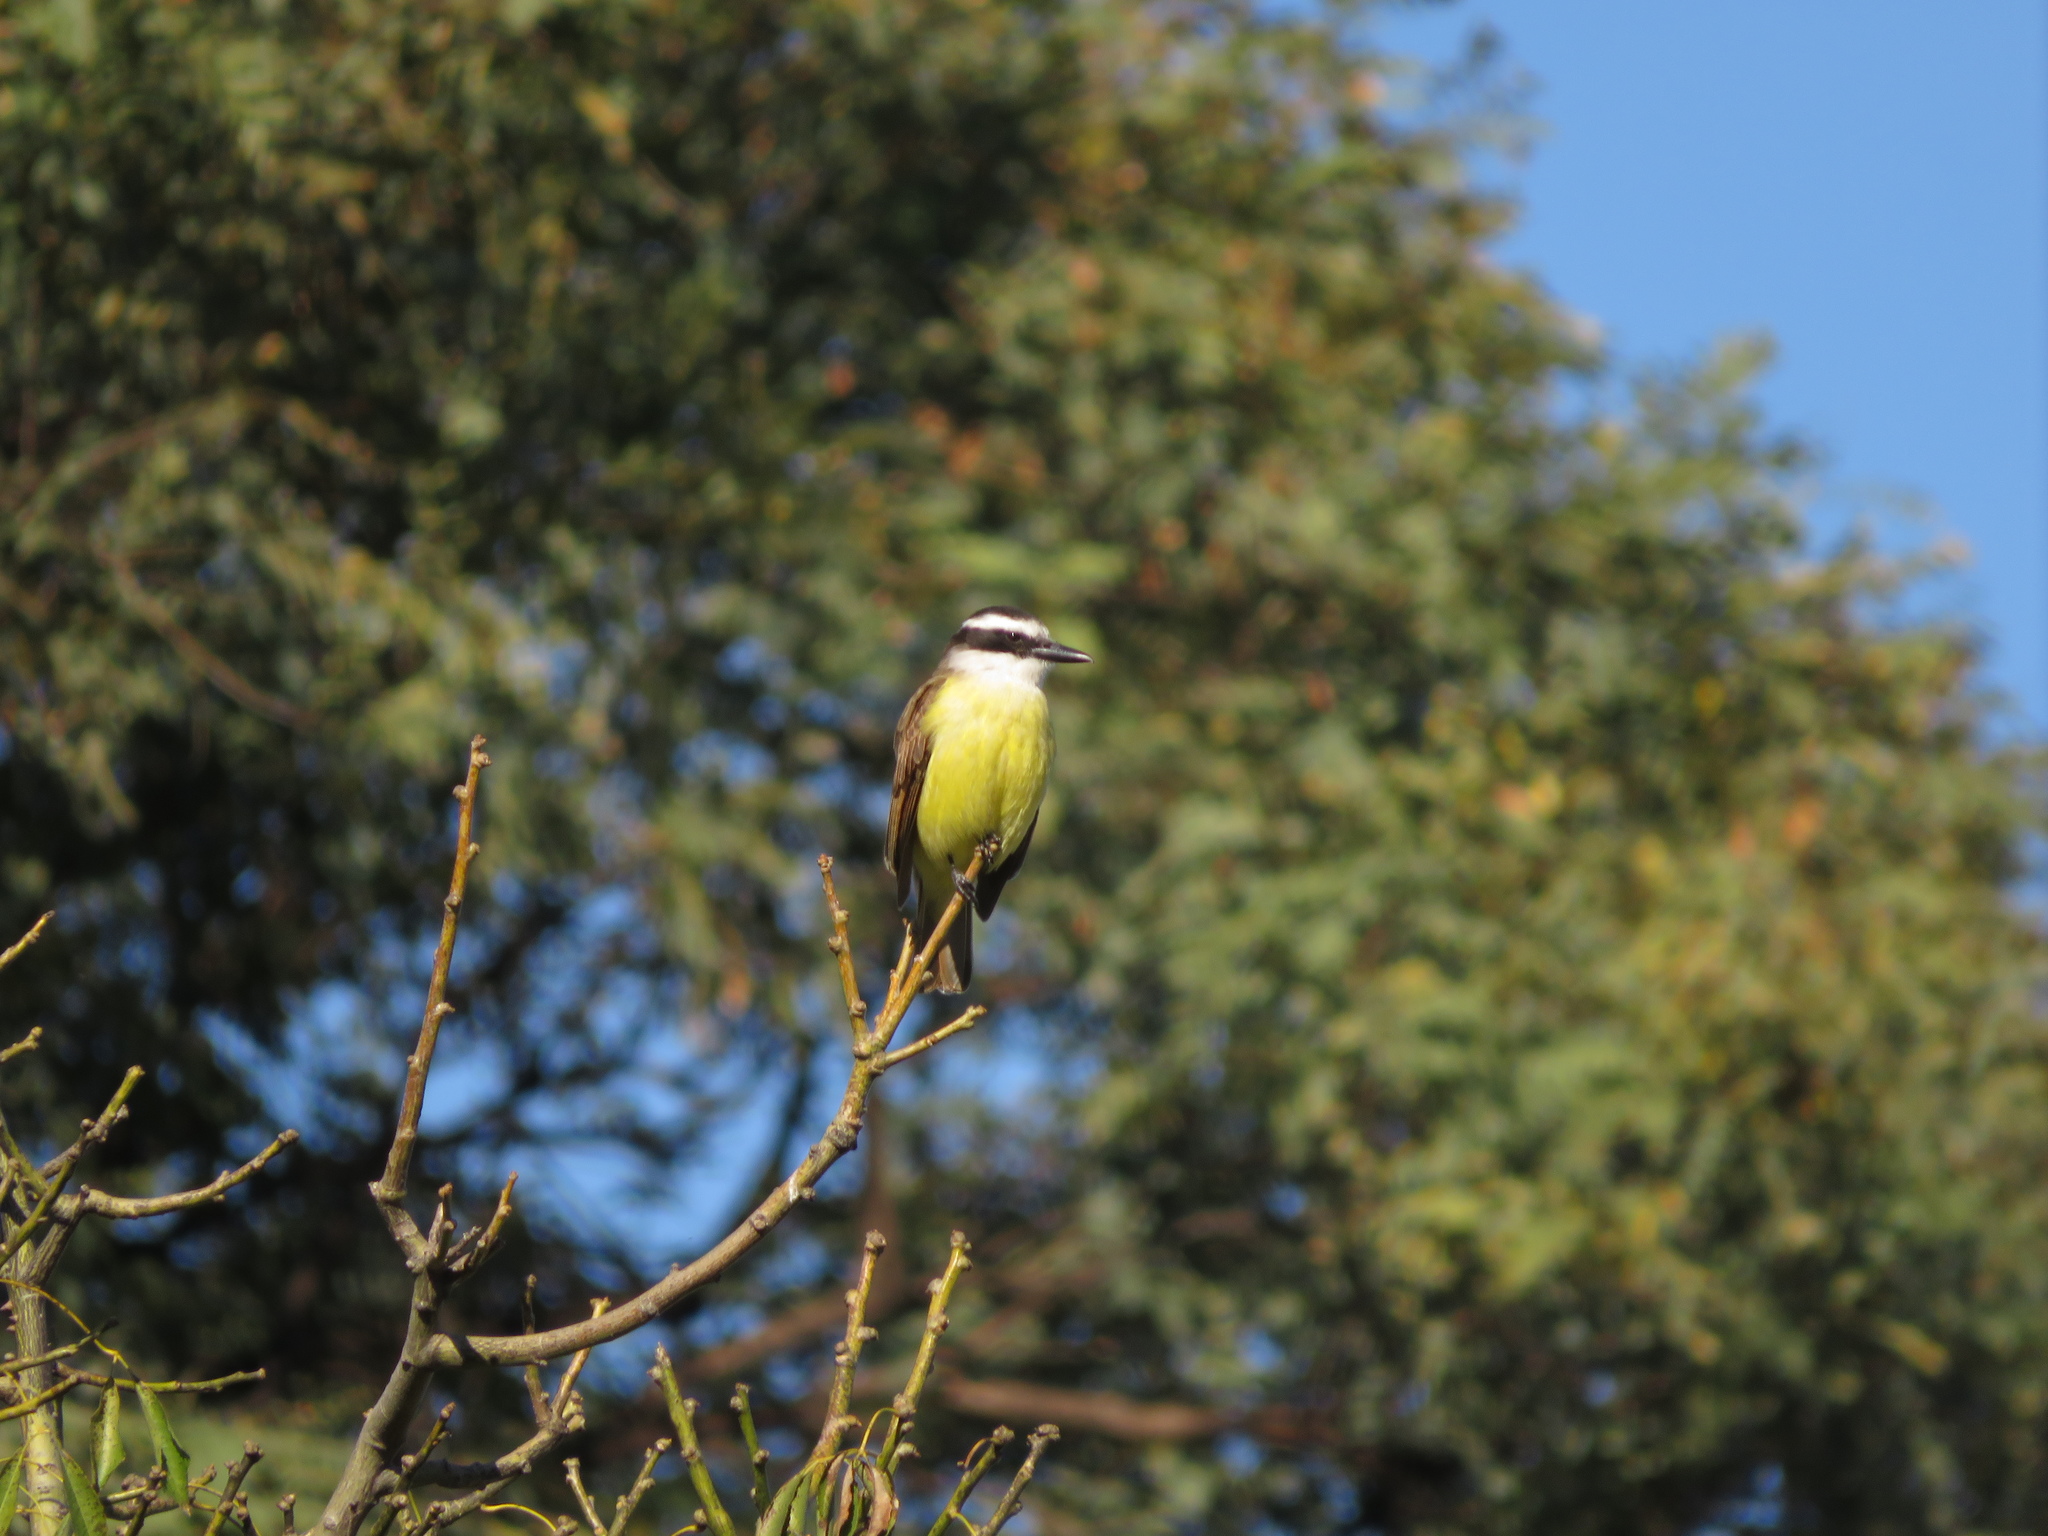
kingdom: Animalia
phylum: Chordata
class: Aves
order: Passeriformes
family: Tyrannidae
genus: Pitangus
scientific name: Pitangus sulphuratus
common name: Great kiskadee
